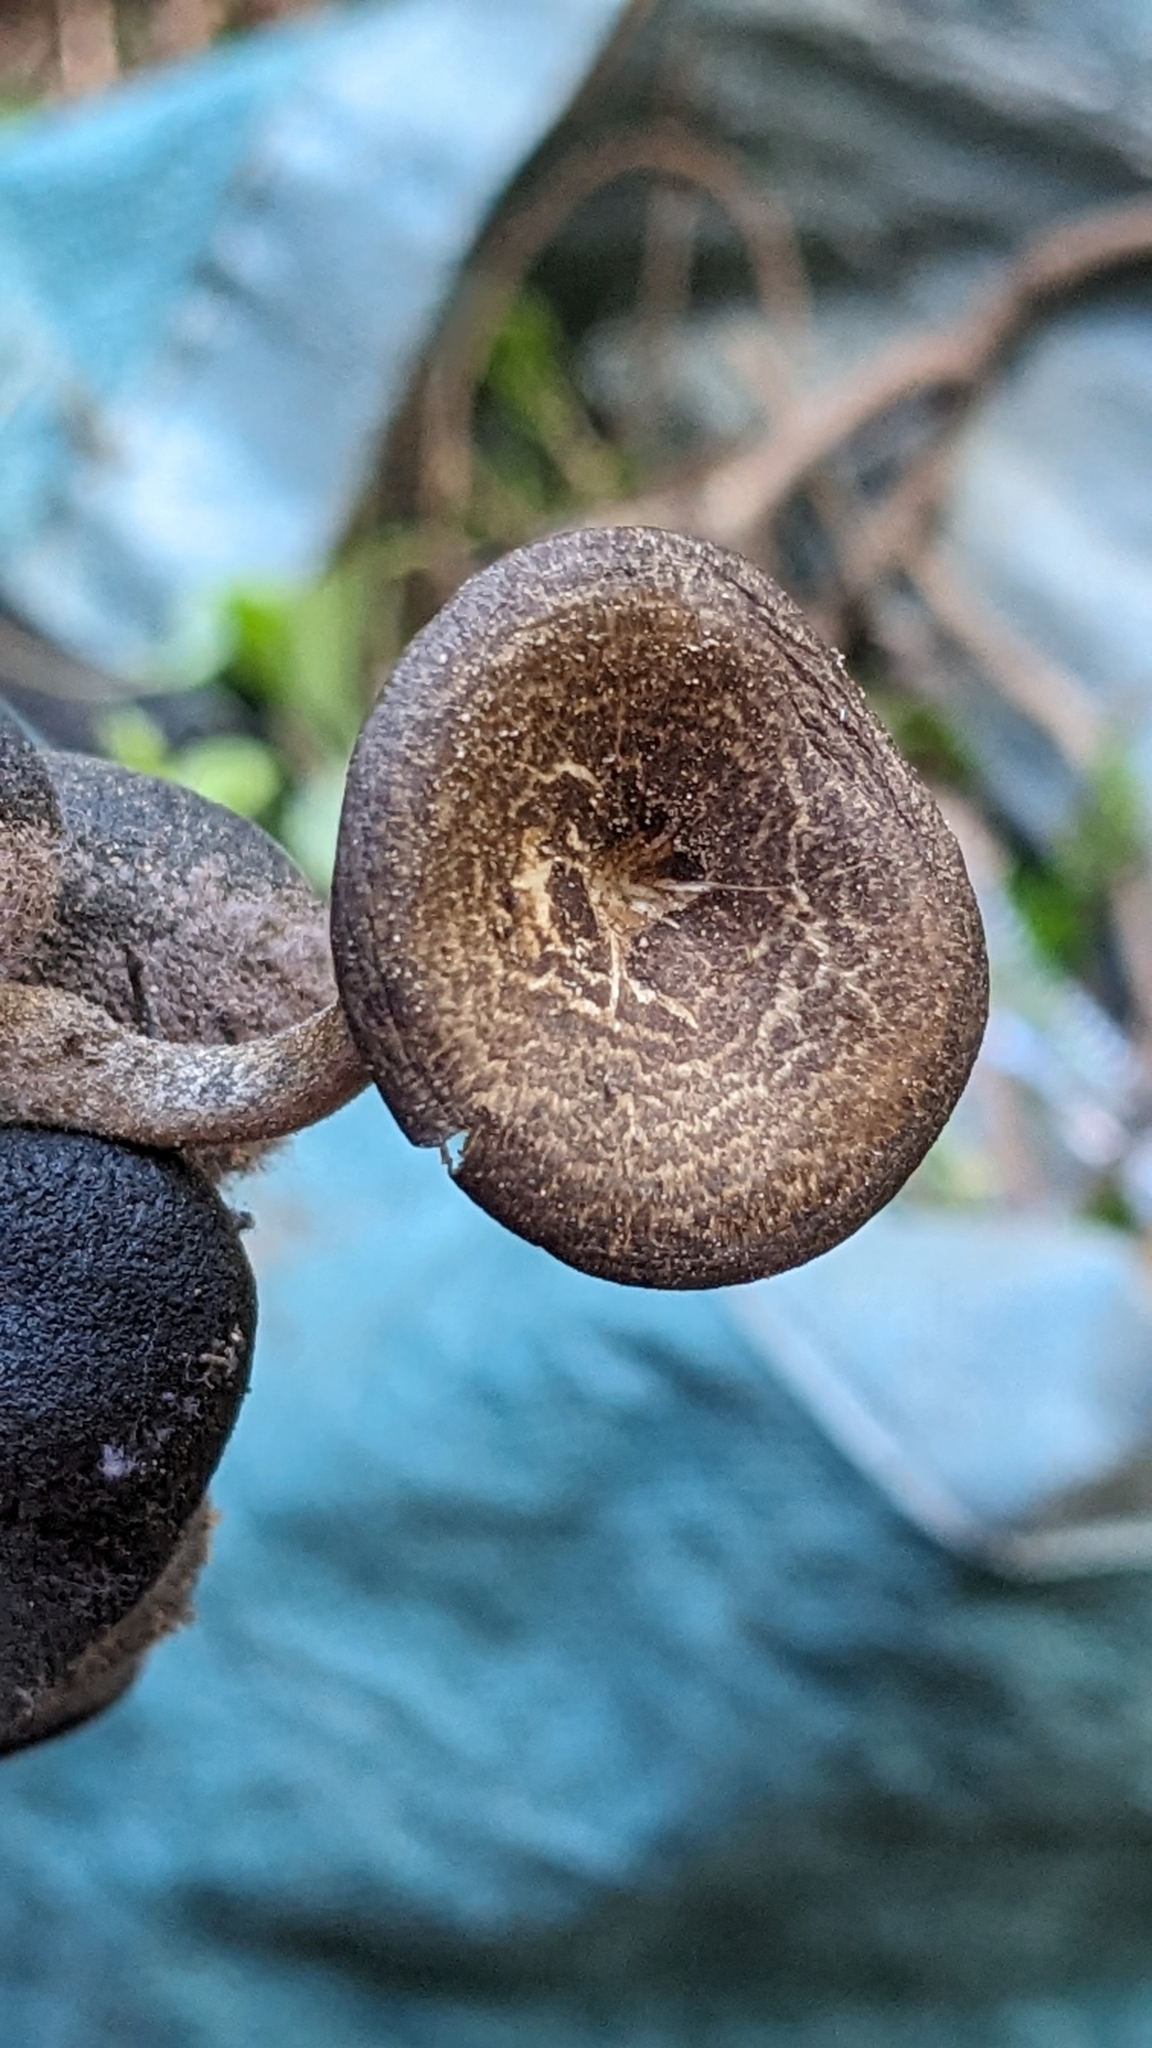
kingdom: Fungi
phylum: Basidiomycota
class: Agaricomycetes
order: Polyporales
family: Polyporaceae
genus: Lentinus
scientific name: Lentinus arcularius
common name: Spring polypore
